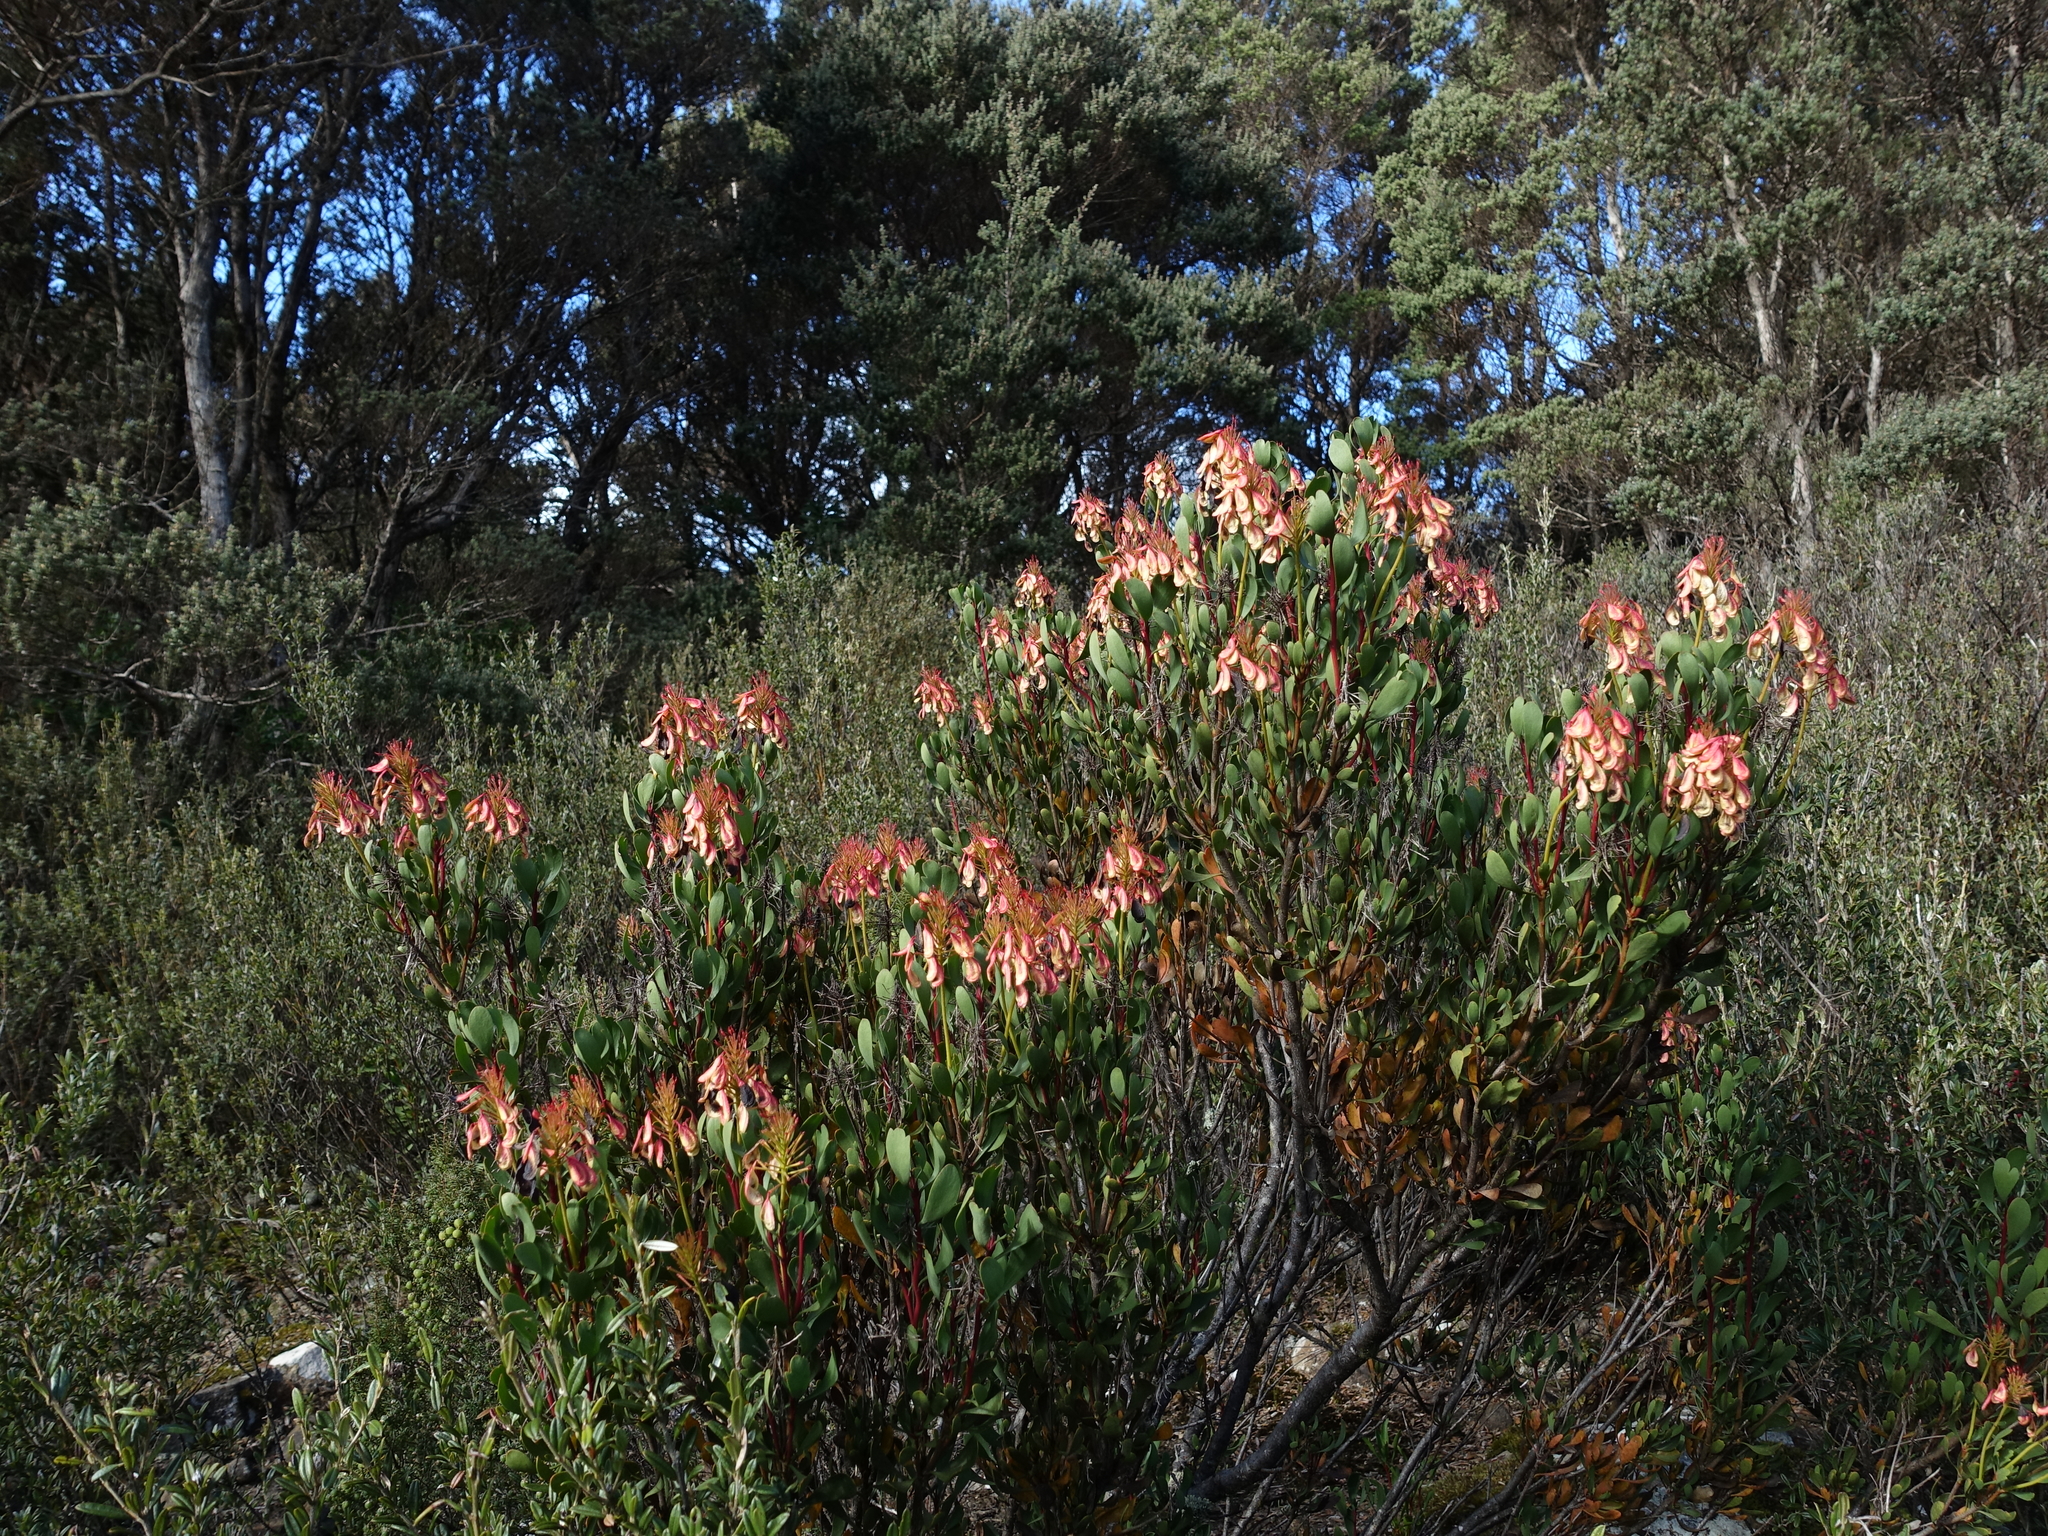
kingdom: Plantae
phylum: Tracheophyta
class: Magnoliopsida
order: Proteales
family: Proteaceae
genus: Bellendena
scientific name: Bellendena montana
